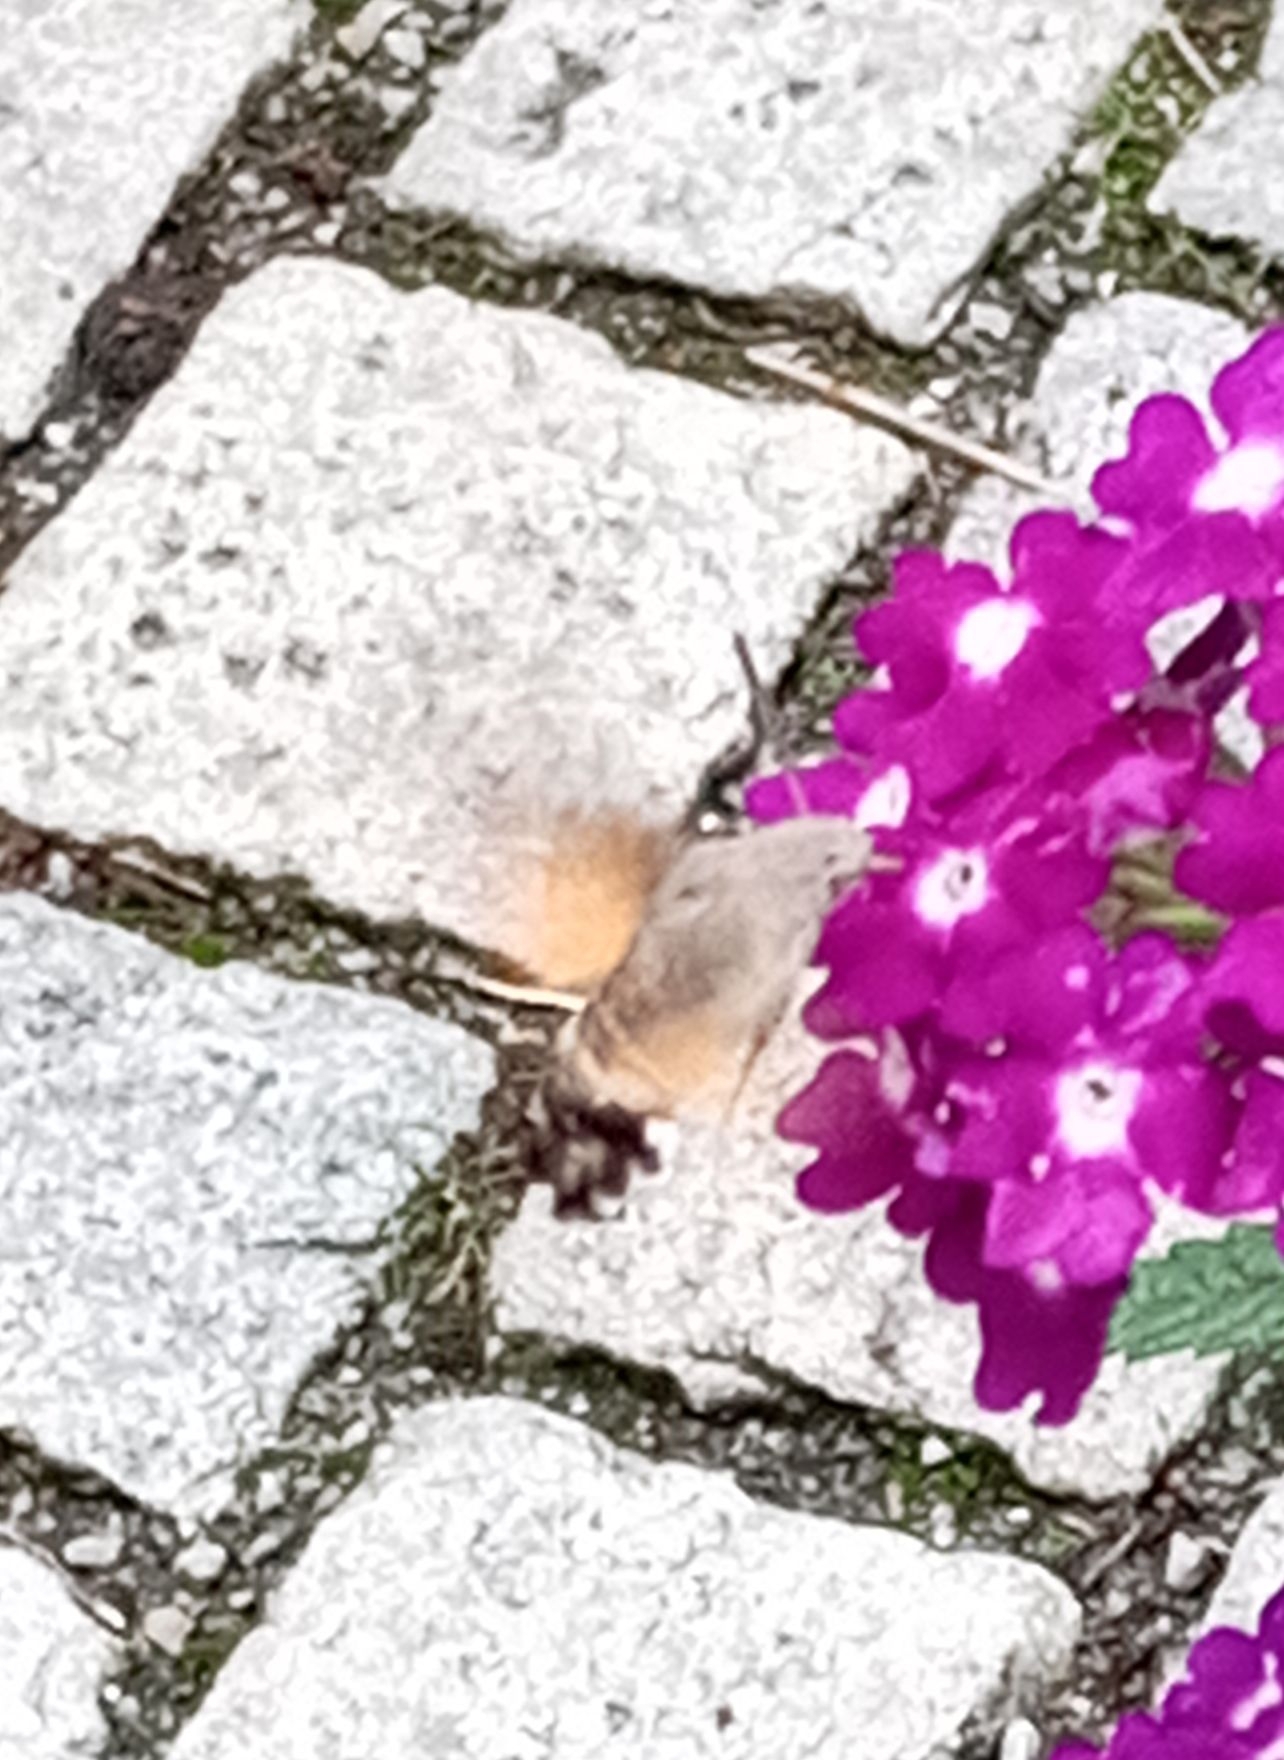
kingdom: Animalia
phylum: Arthropoda
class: Insecta
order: Lepidoptera
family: Sphingidae
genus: Macroglossum
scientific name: Macroglossum stellatarum
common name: Humming-bird hawk-moth
